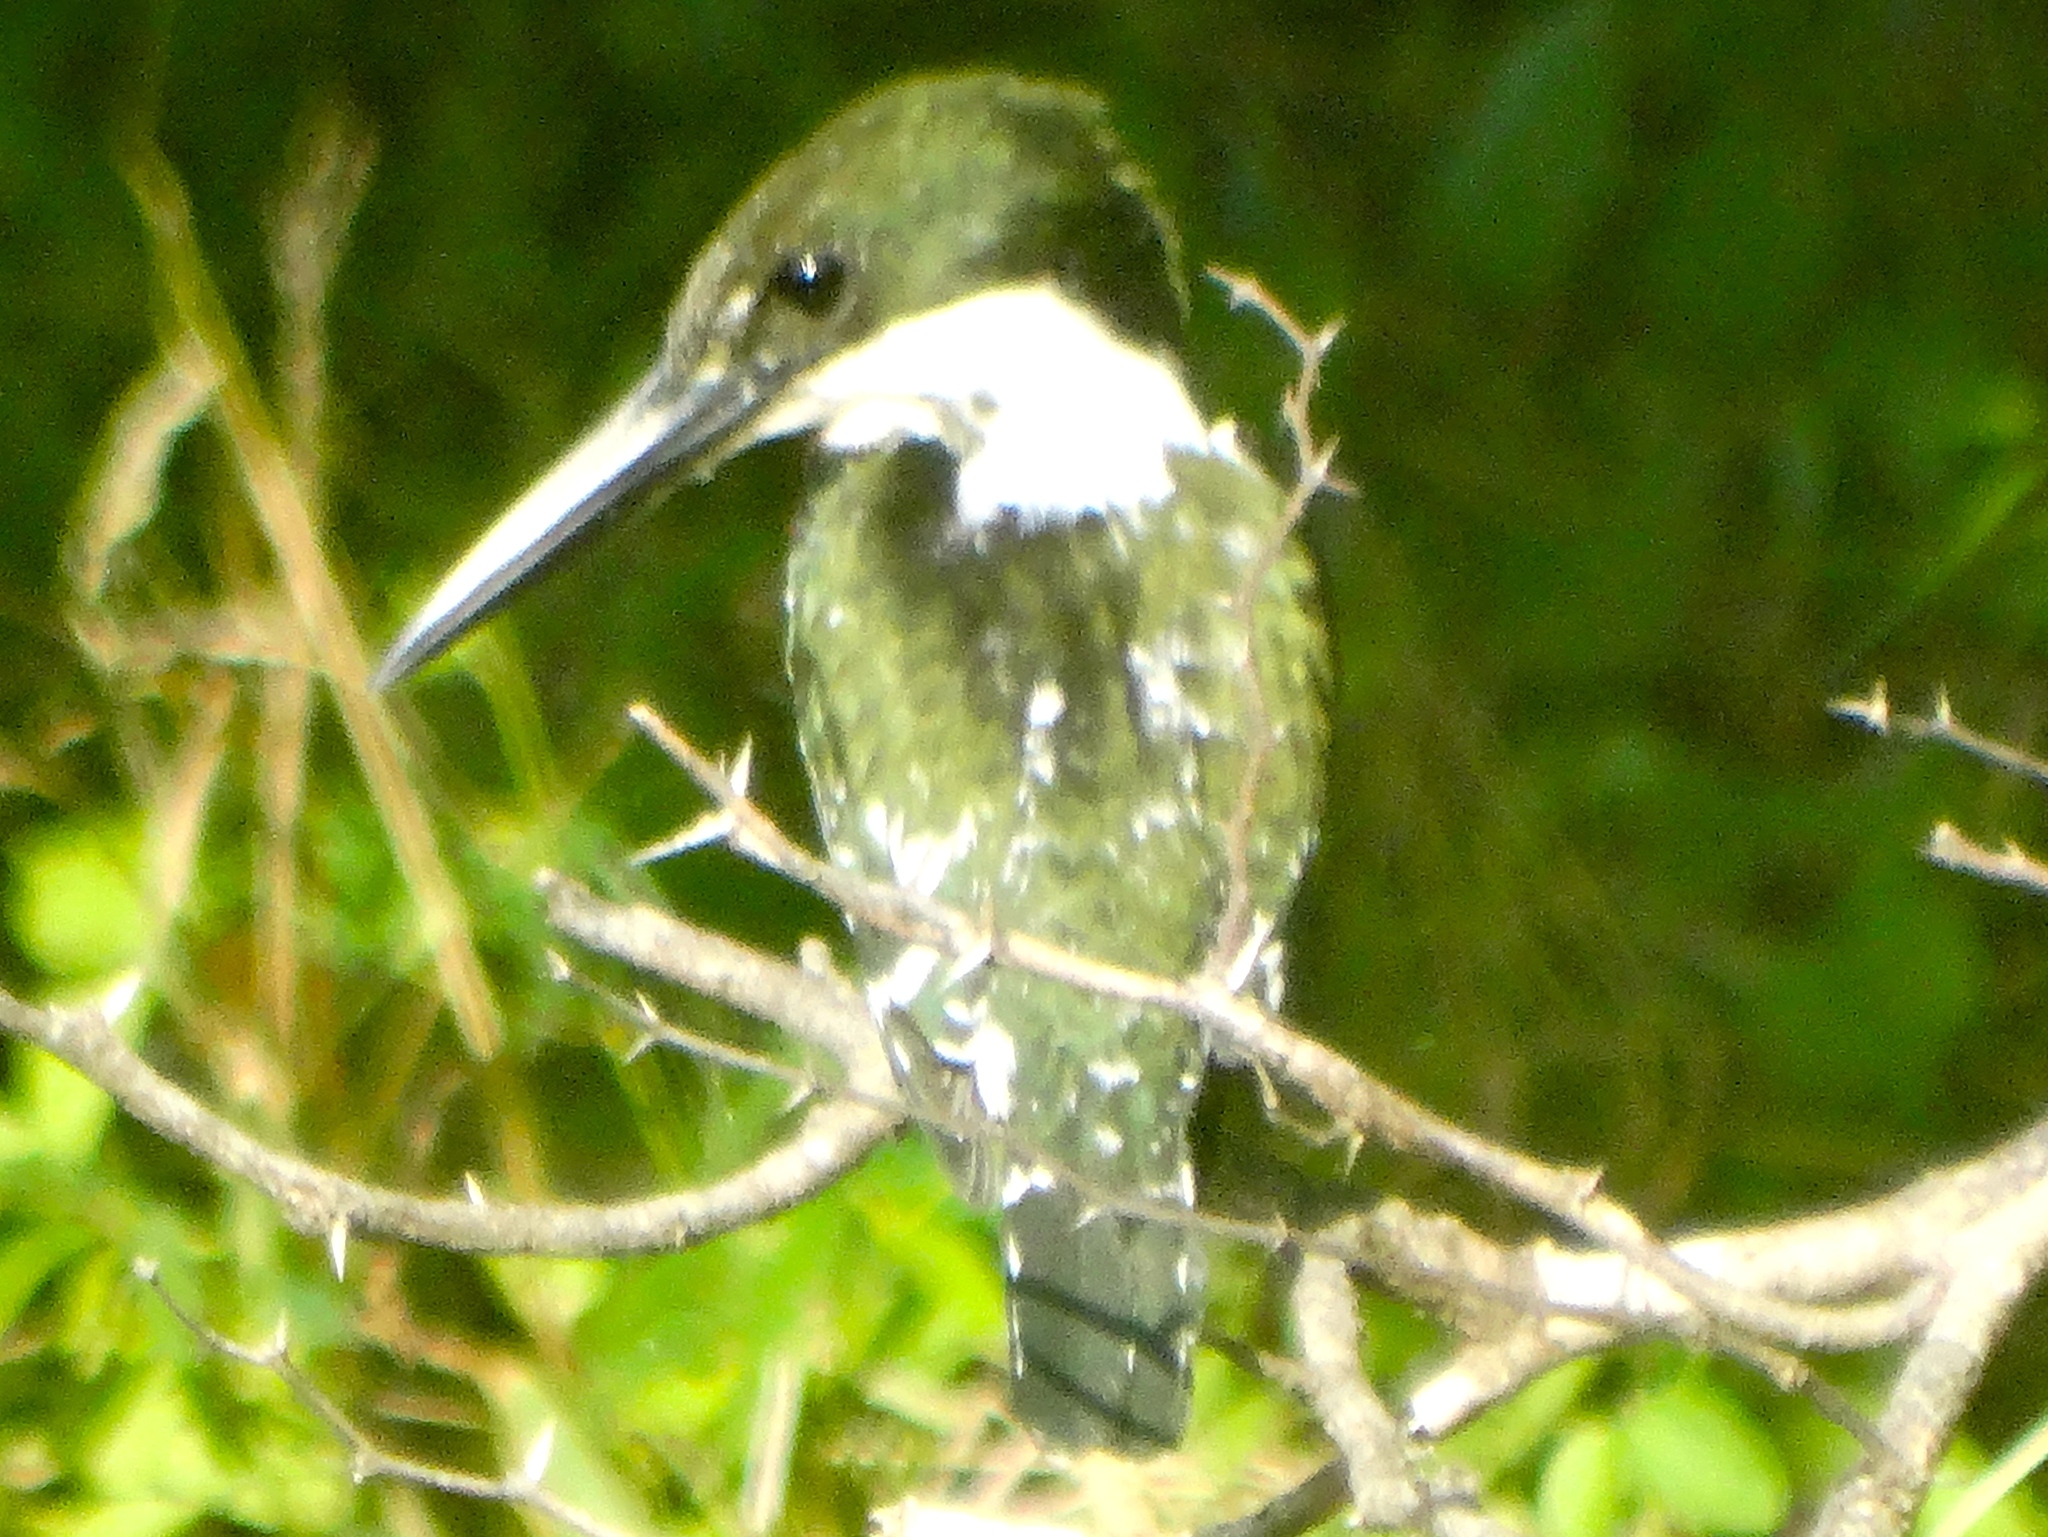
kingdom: Animalia
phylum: Chordata
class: Aves
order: Coraciiformes
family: Alcedinidae
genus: Chloroceryle
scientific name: Chloroceryle americana
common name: Green kingfisher
